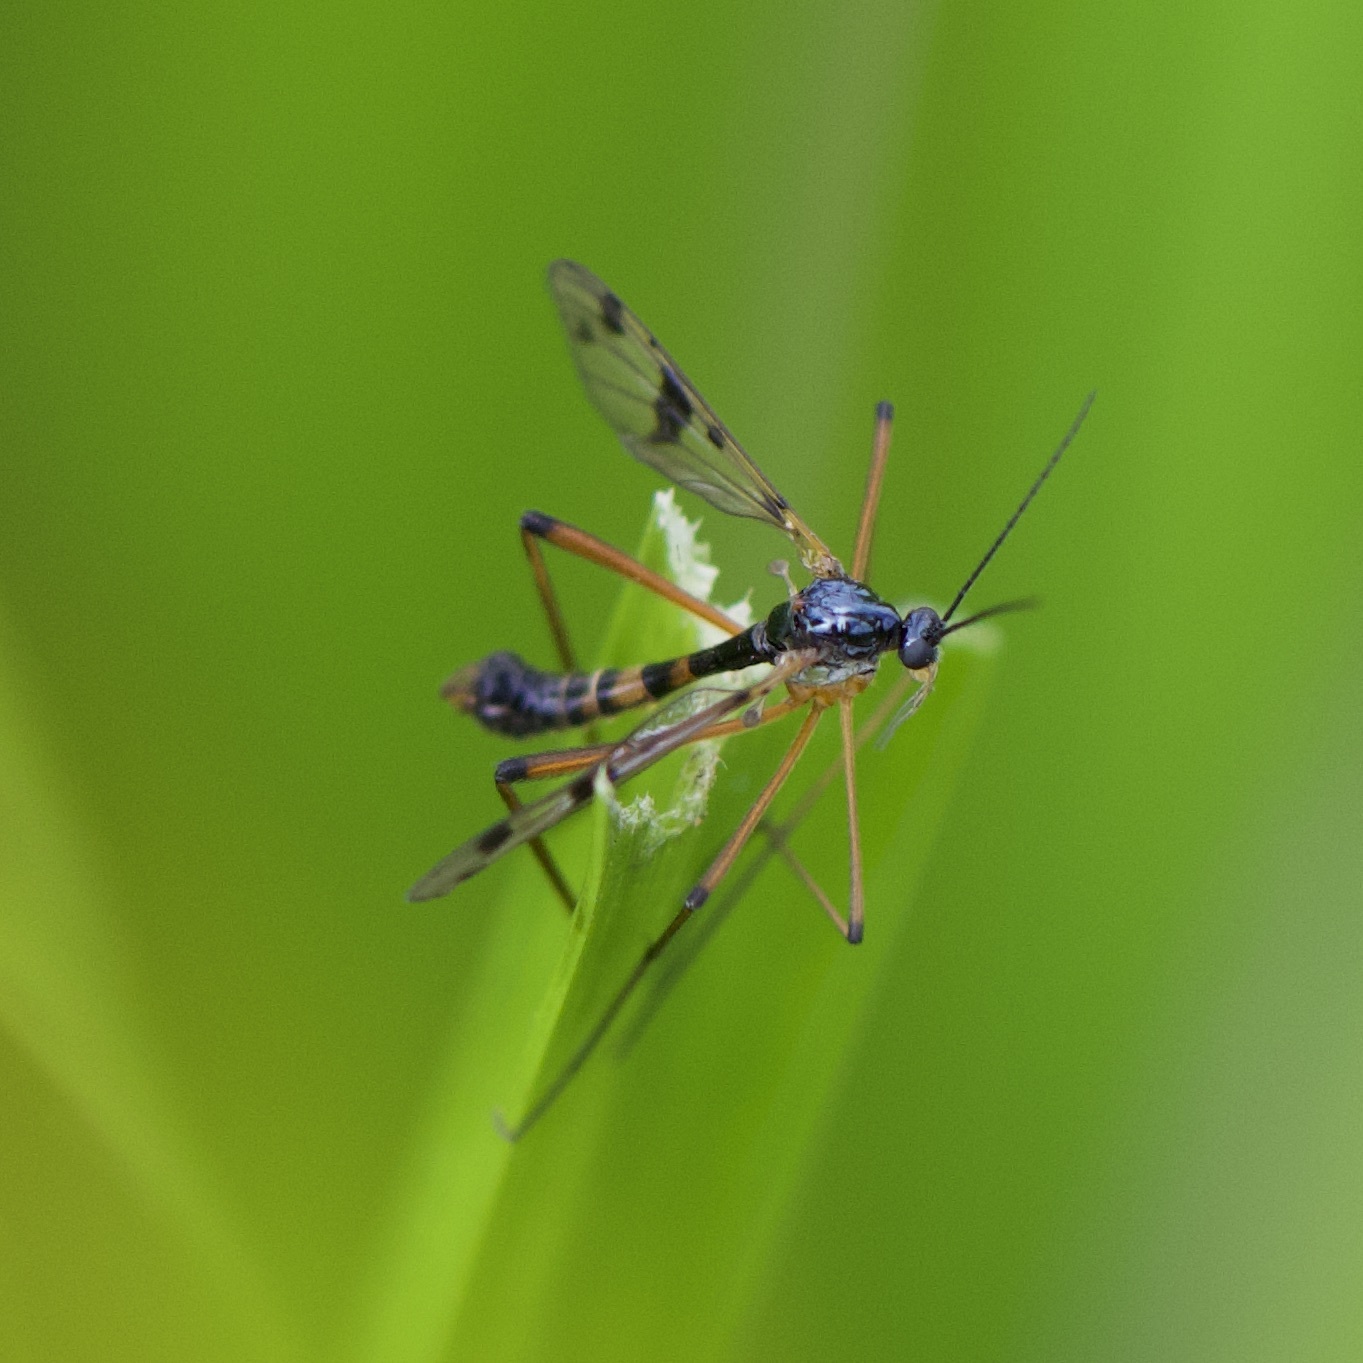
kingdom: Animalia
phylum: Arthropoda
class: Insecta
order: Diptera
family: Ptychopteridae
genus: Ptychoptera
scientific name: Ptychoptera contaminata
